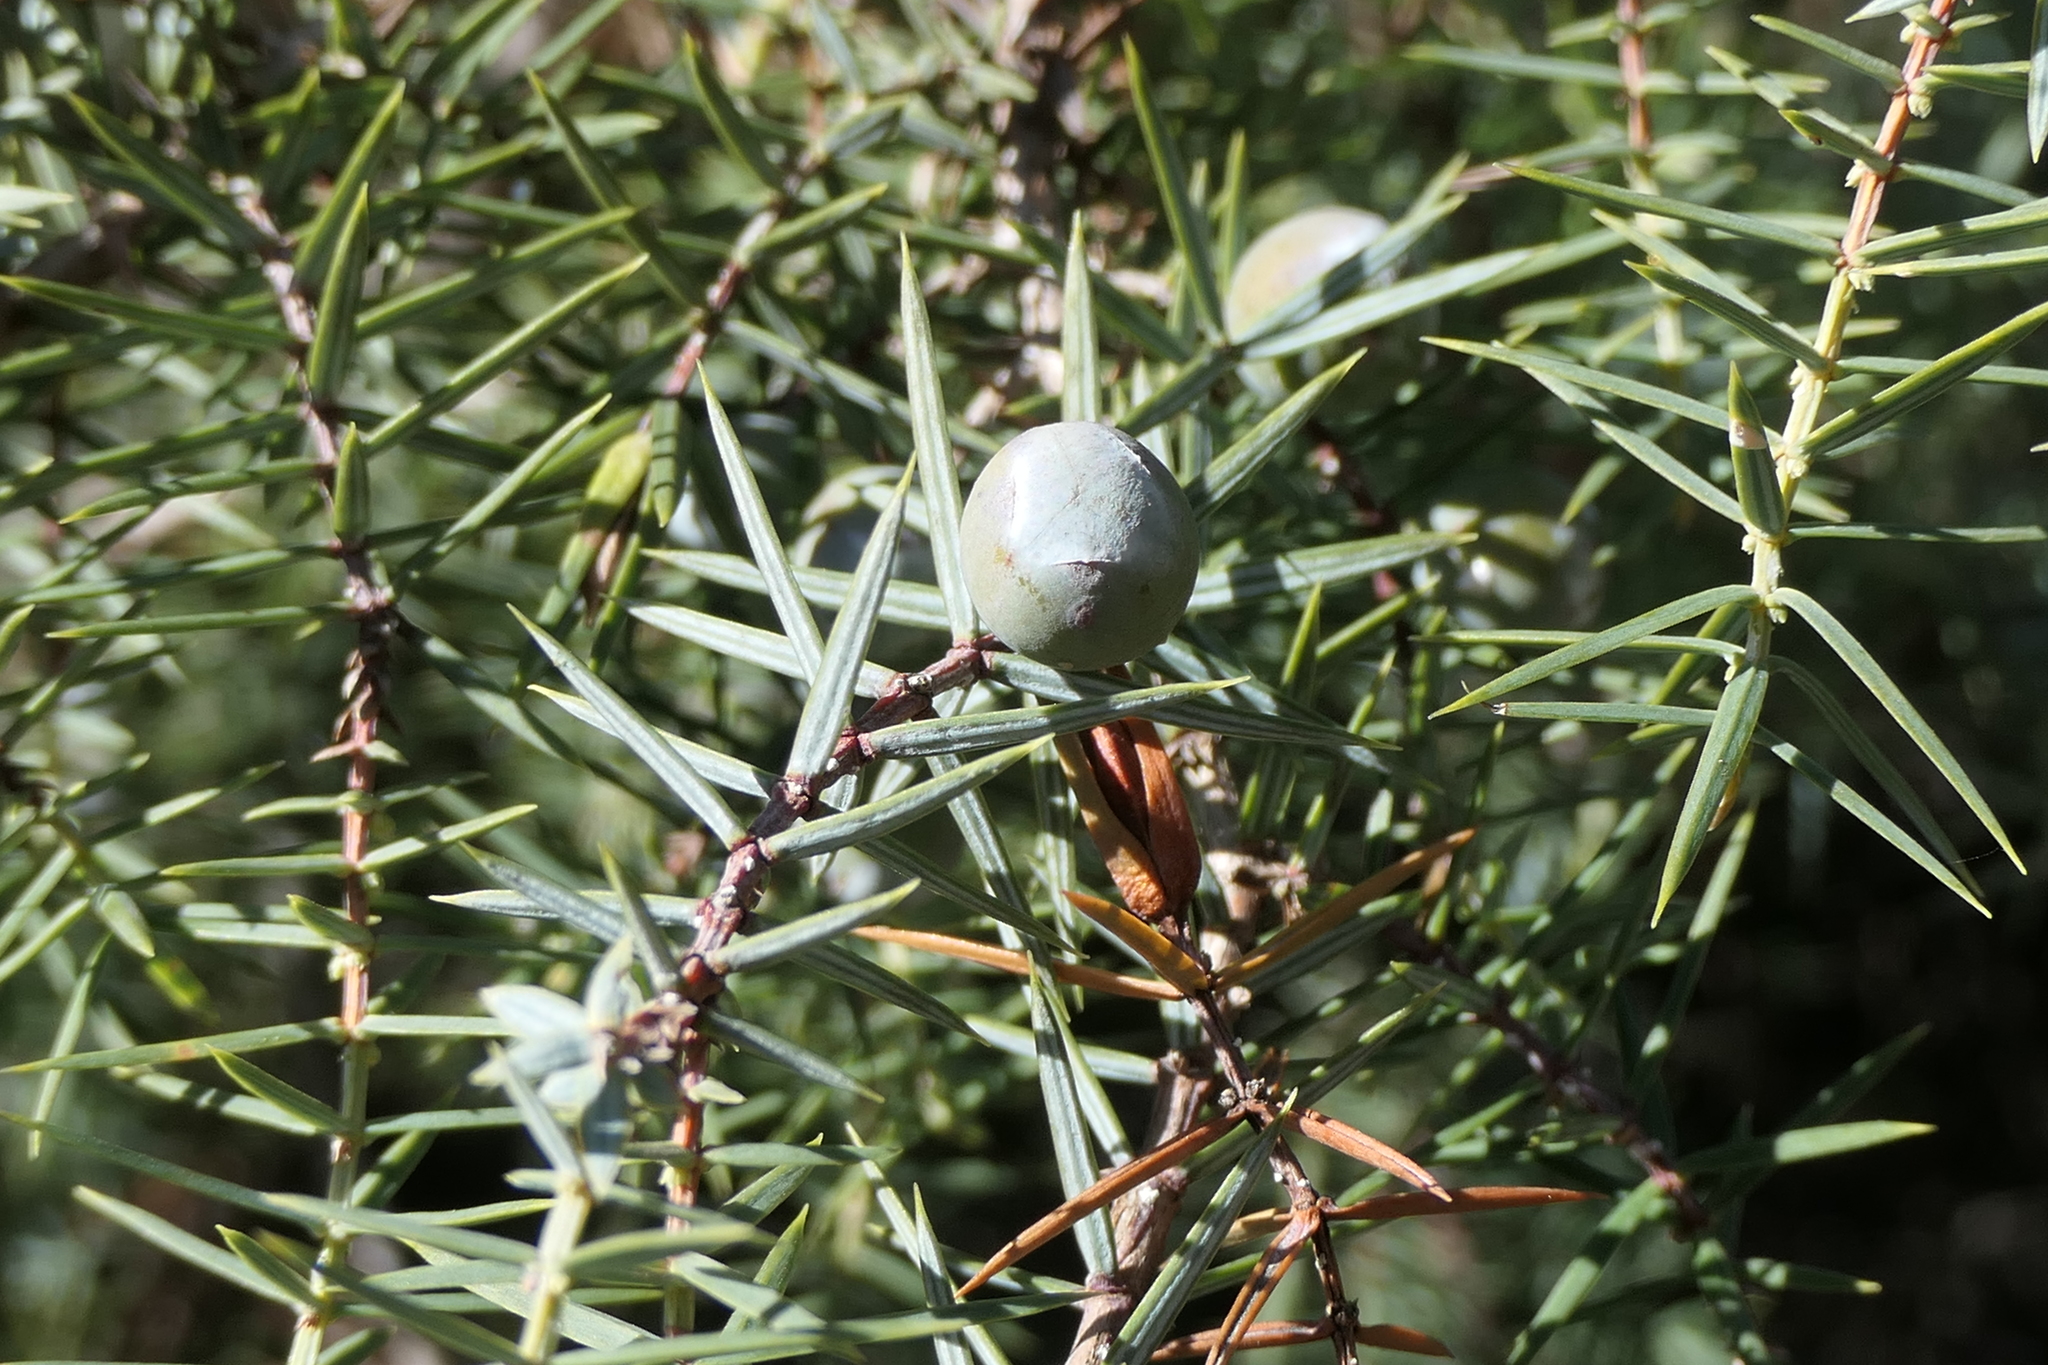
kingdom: Plantae
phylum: Tracheophyta
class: Pinopsida
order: Pinales
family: Cupressaceae
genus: Juniperus
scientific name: Juniperus oxycedrus
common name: Prickly juniper
